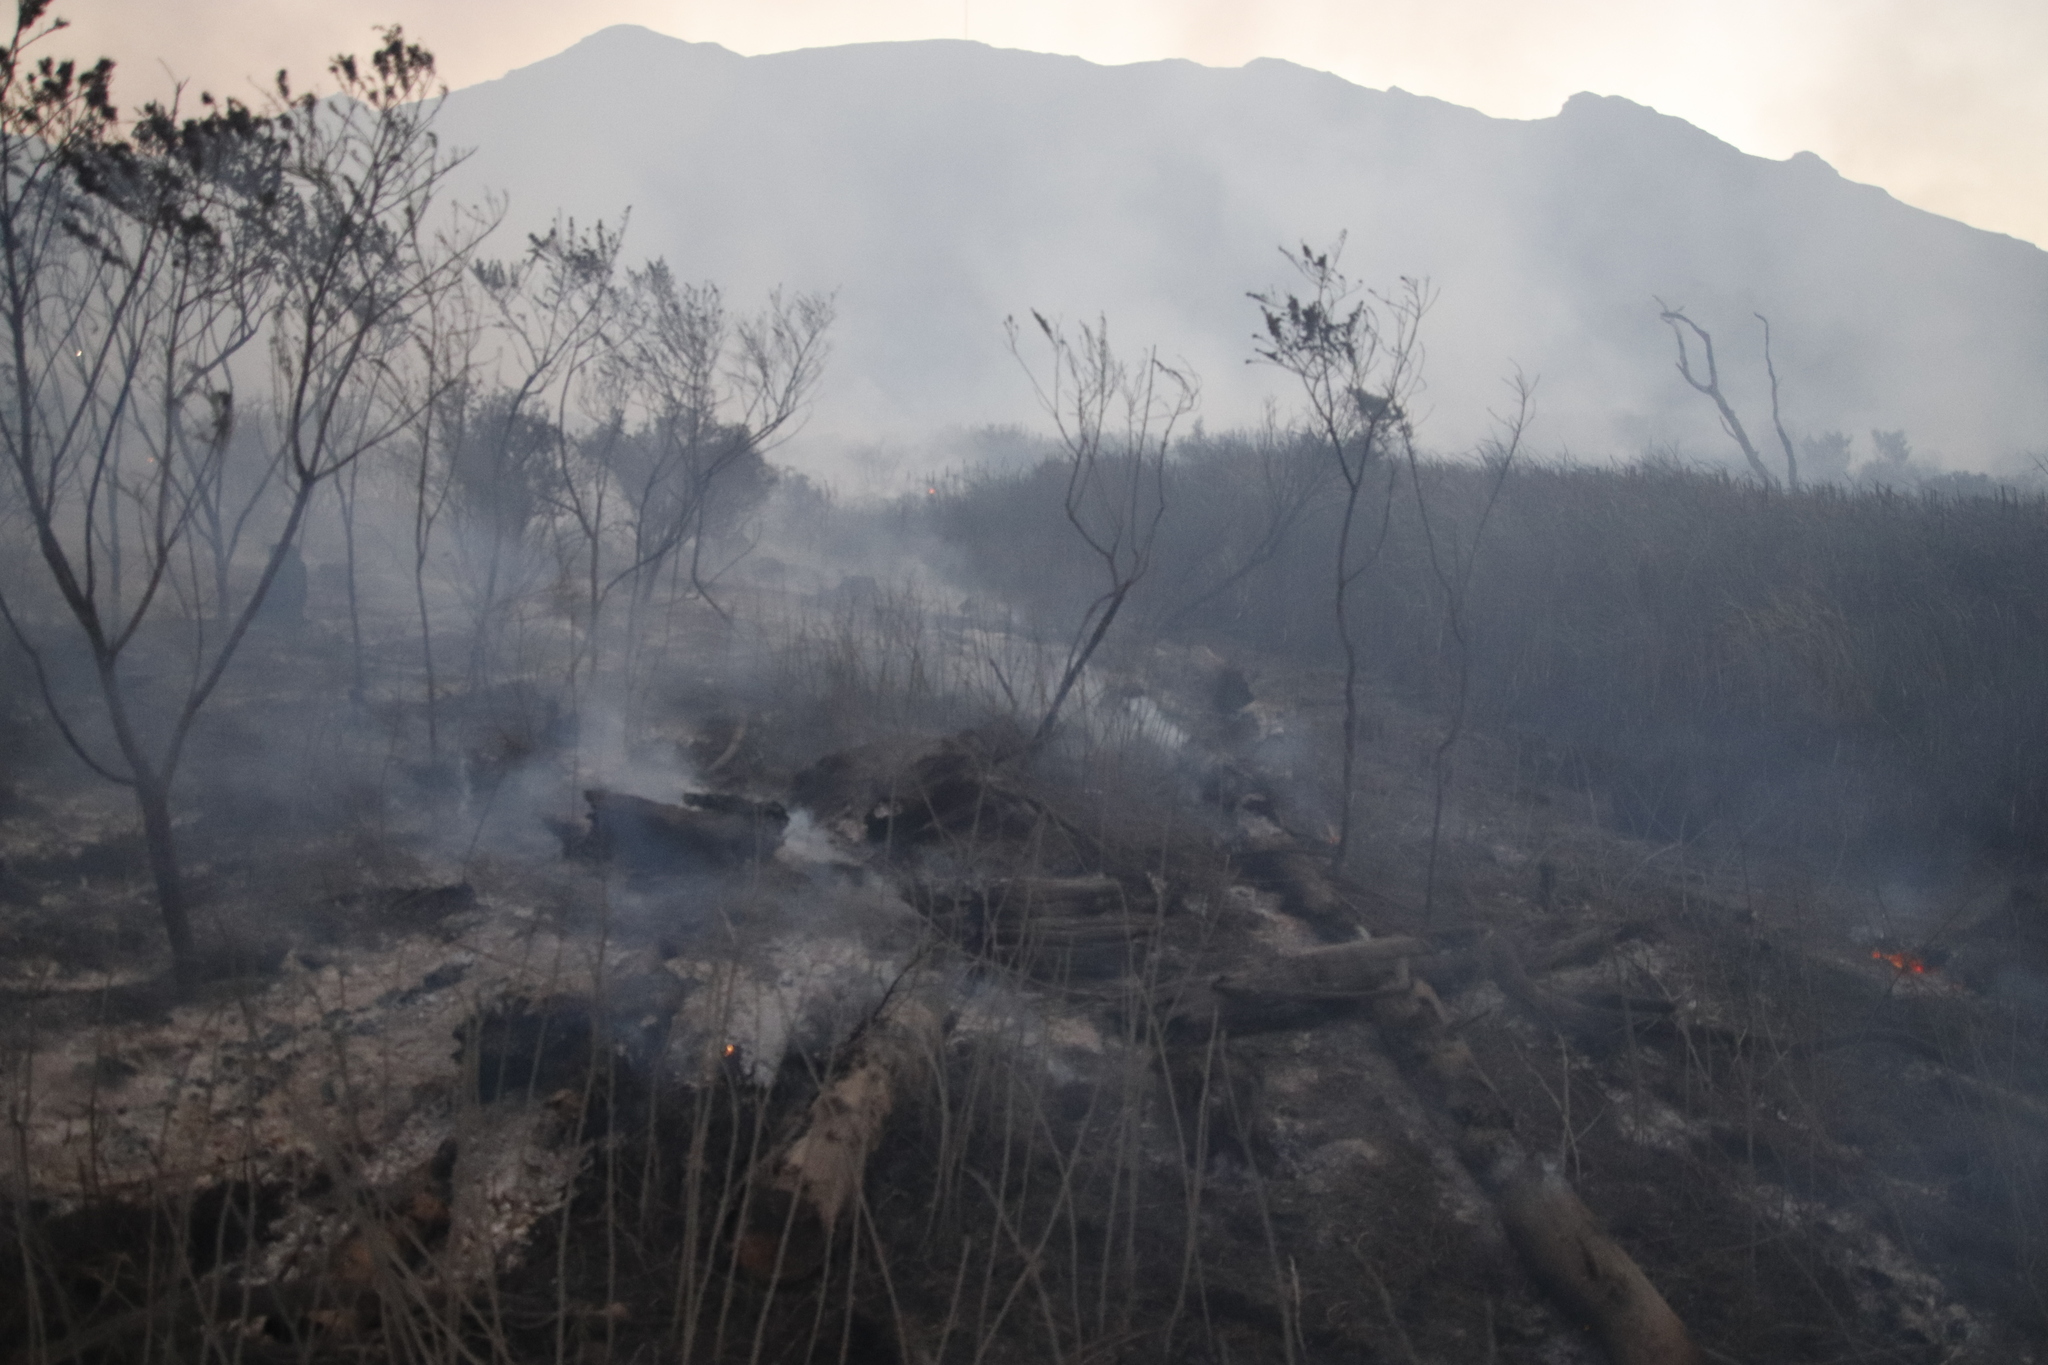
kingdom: Plantae
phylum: Tracheophyta
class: Magnoliopsida
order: Fabales
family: Fabaceae
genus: Psoralea
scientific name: Psoralea pinnata
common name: African scurfpea
